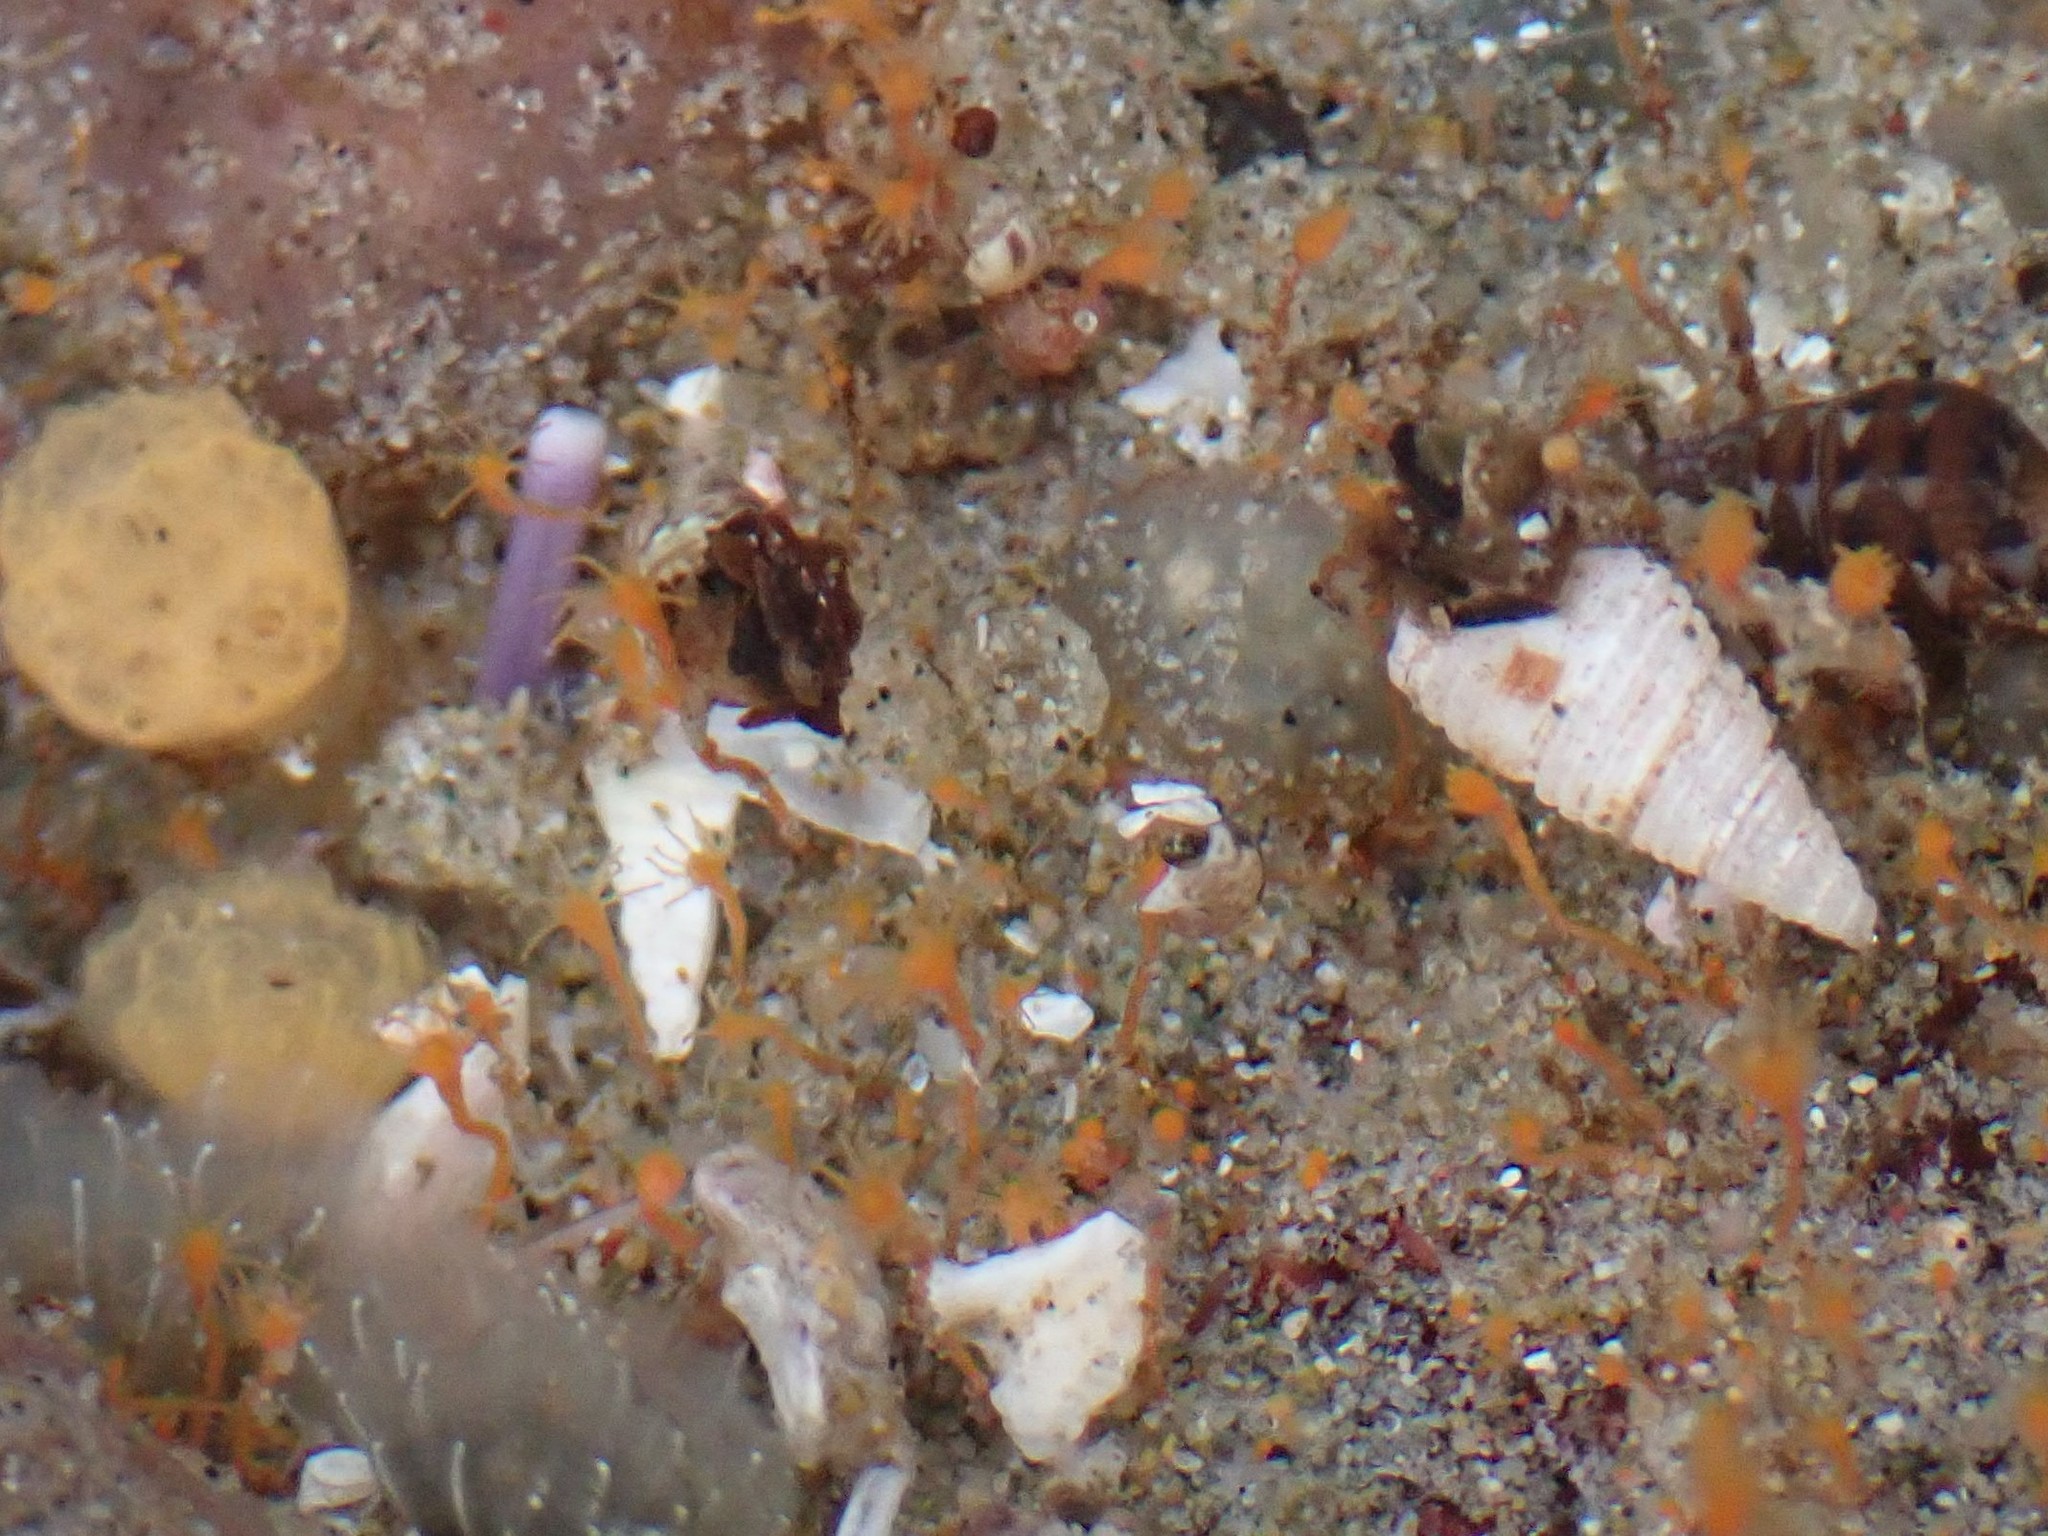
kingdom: Animalia
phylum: Cnidaria
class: Hydrozoa
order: Anthoathecata
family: Bougainvilliidae
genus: Garveia
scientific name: Garveia annulata
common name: Orange hydroid
